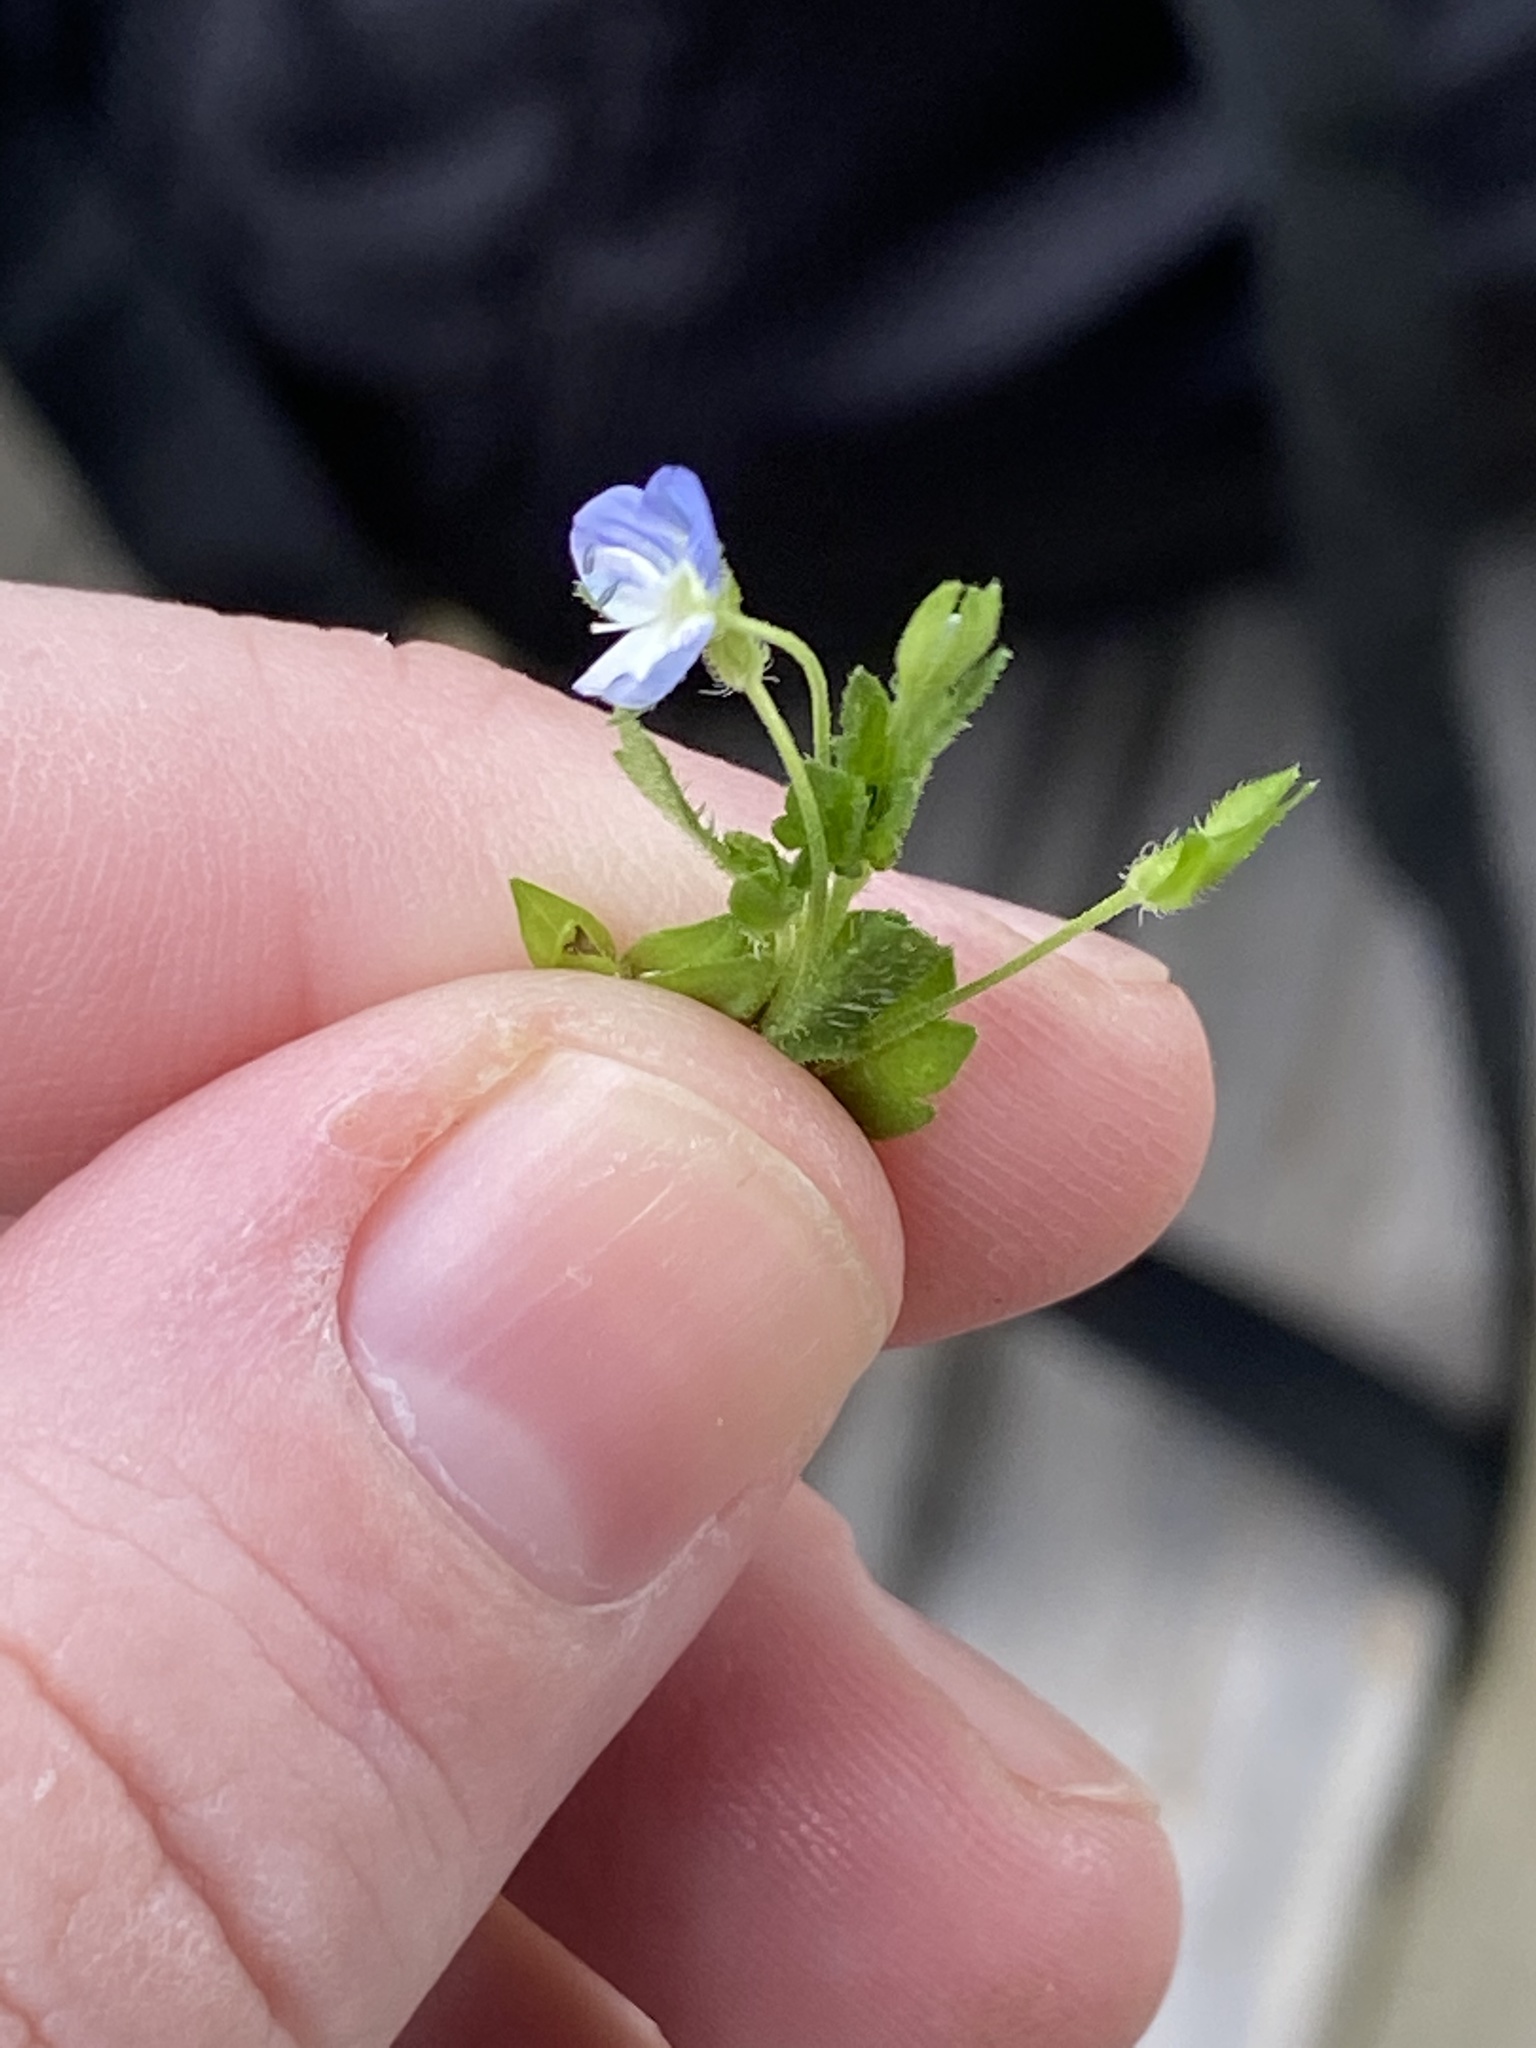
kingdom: Plantae
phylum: Tracheophyta
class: Magnoliopsida
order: Lamiales
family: Plantaginaceae
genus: Veronica
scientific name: Veronica persica
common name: Common field-speedwell
